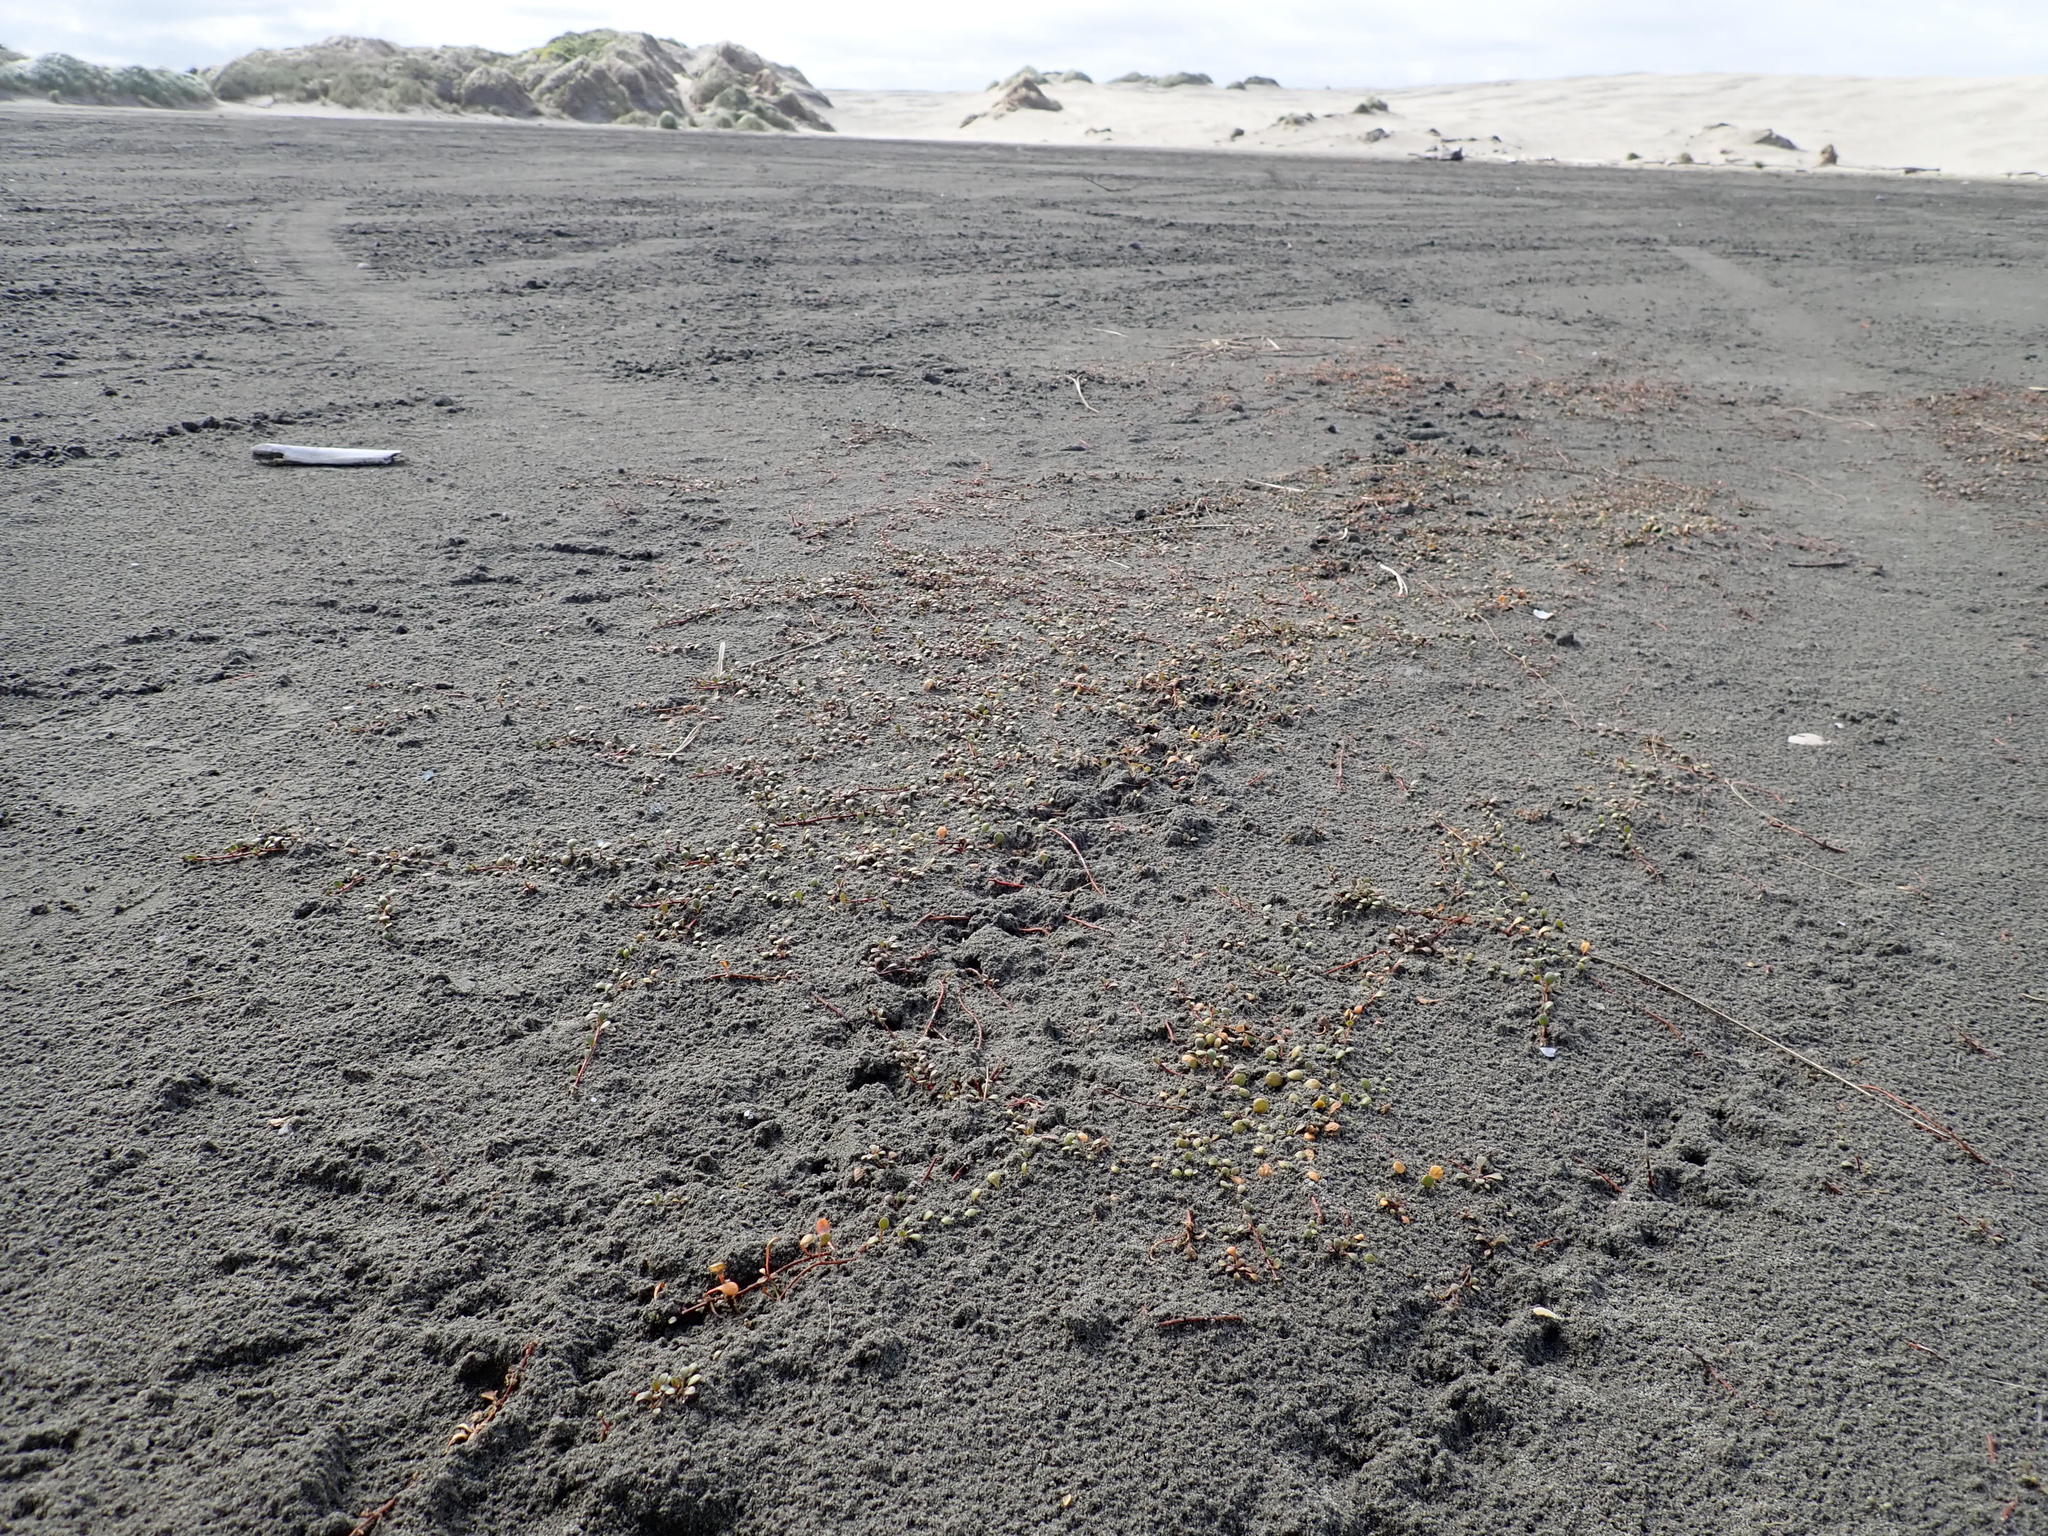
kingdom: Plantae
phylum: Tracheophyta
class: Magnoliopsida
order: Ericales
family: Primulaceae
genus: Samolus
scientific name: Samolus repens
